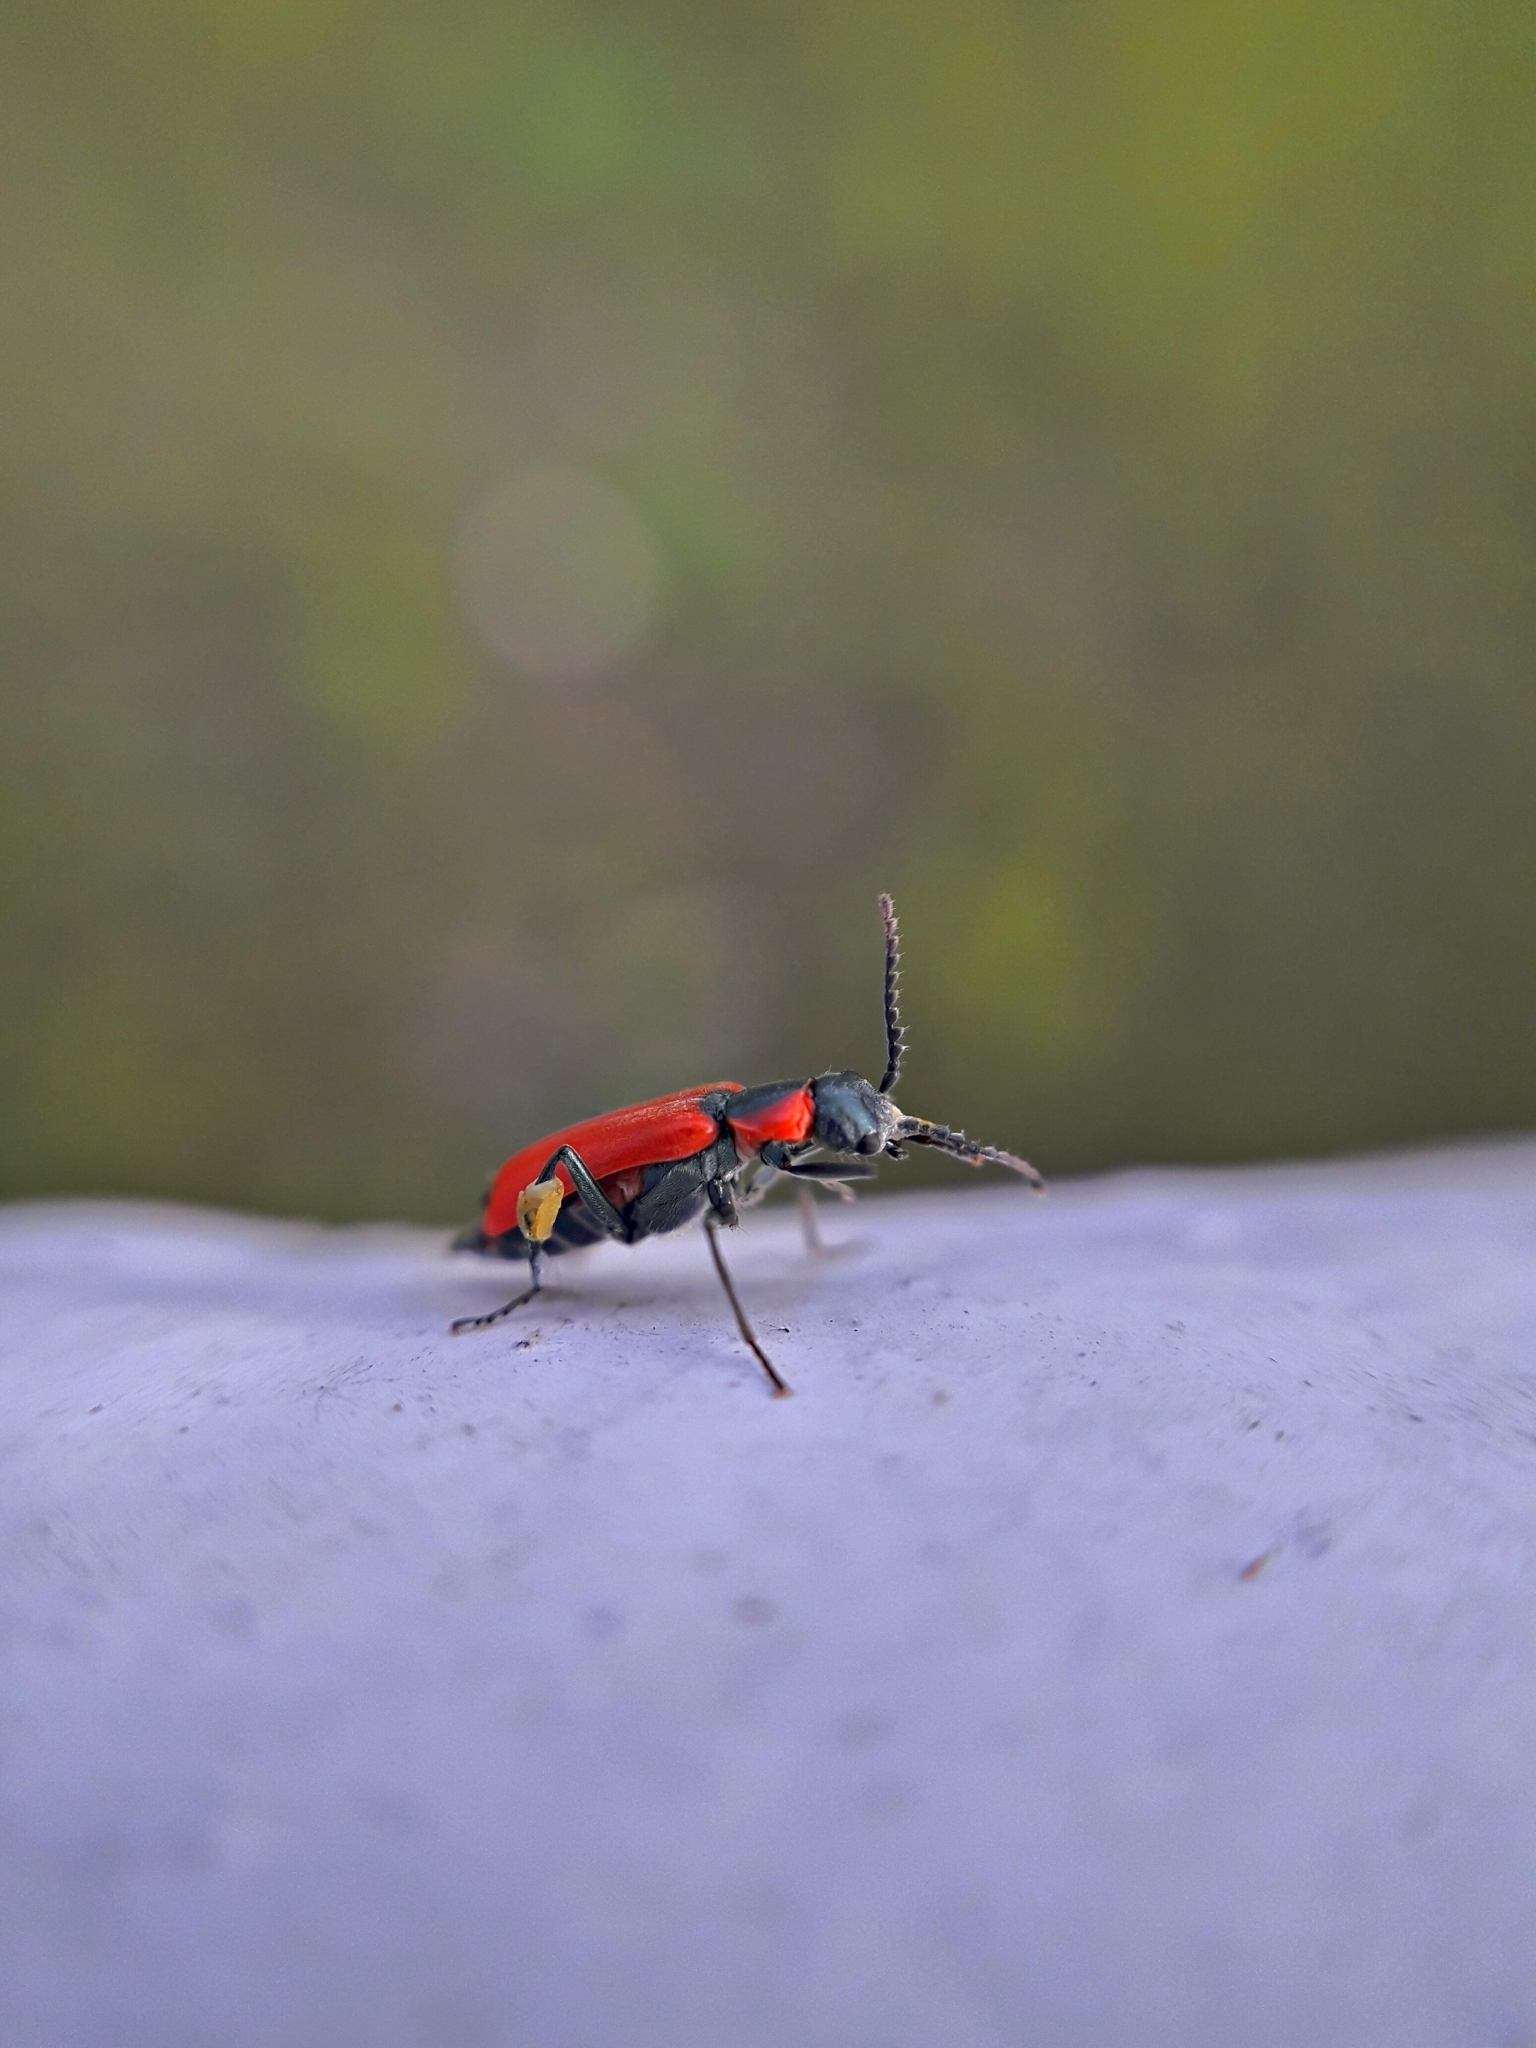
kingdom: Animalia
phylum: Arthropoda
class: Insecta
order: Coleoptera
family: Melyridae
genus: Anthocomus
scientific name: Anthocomus rufus
